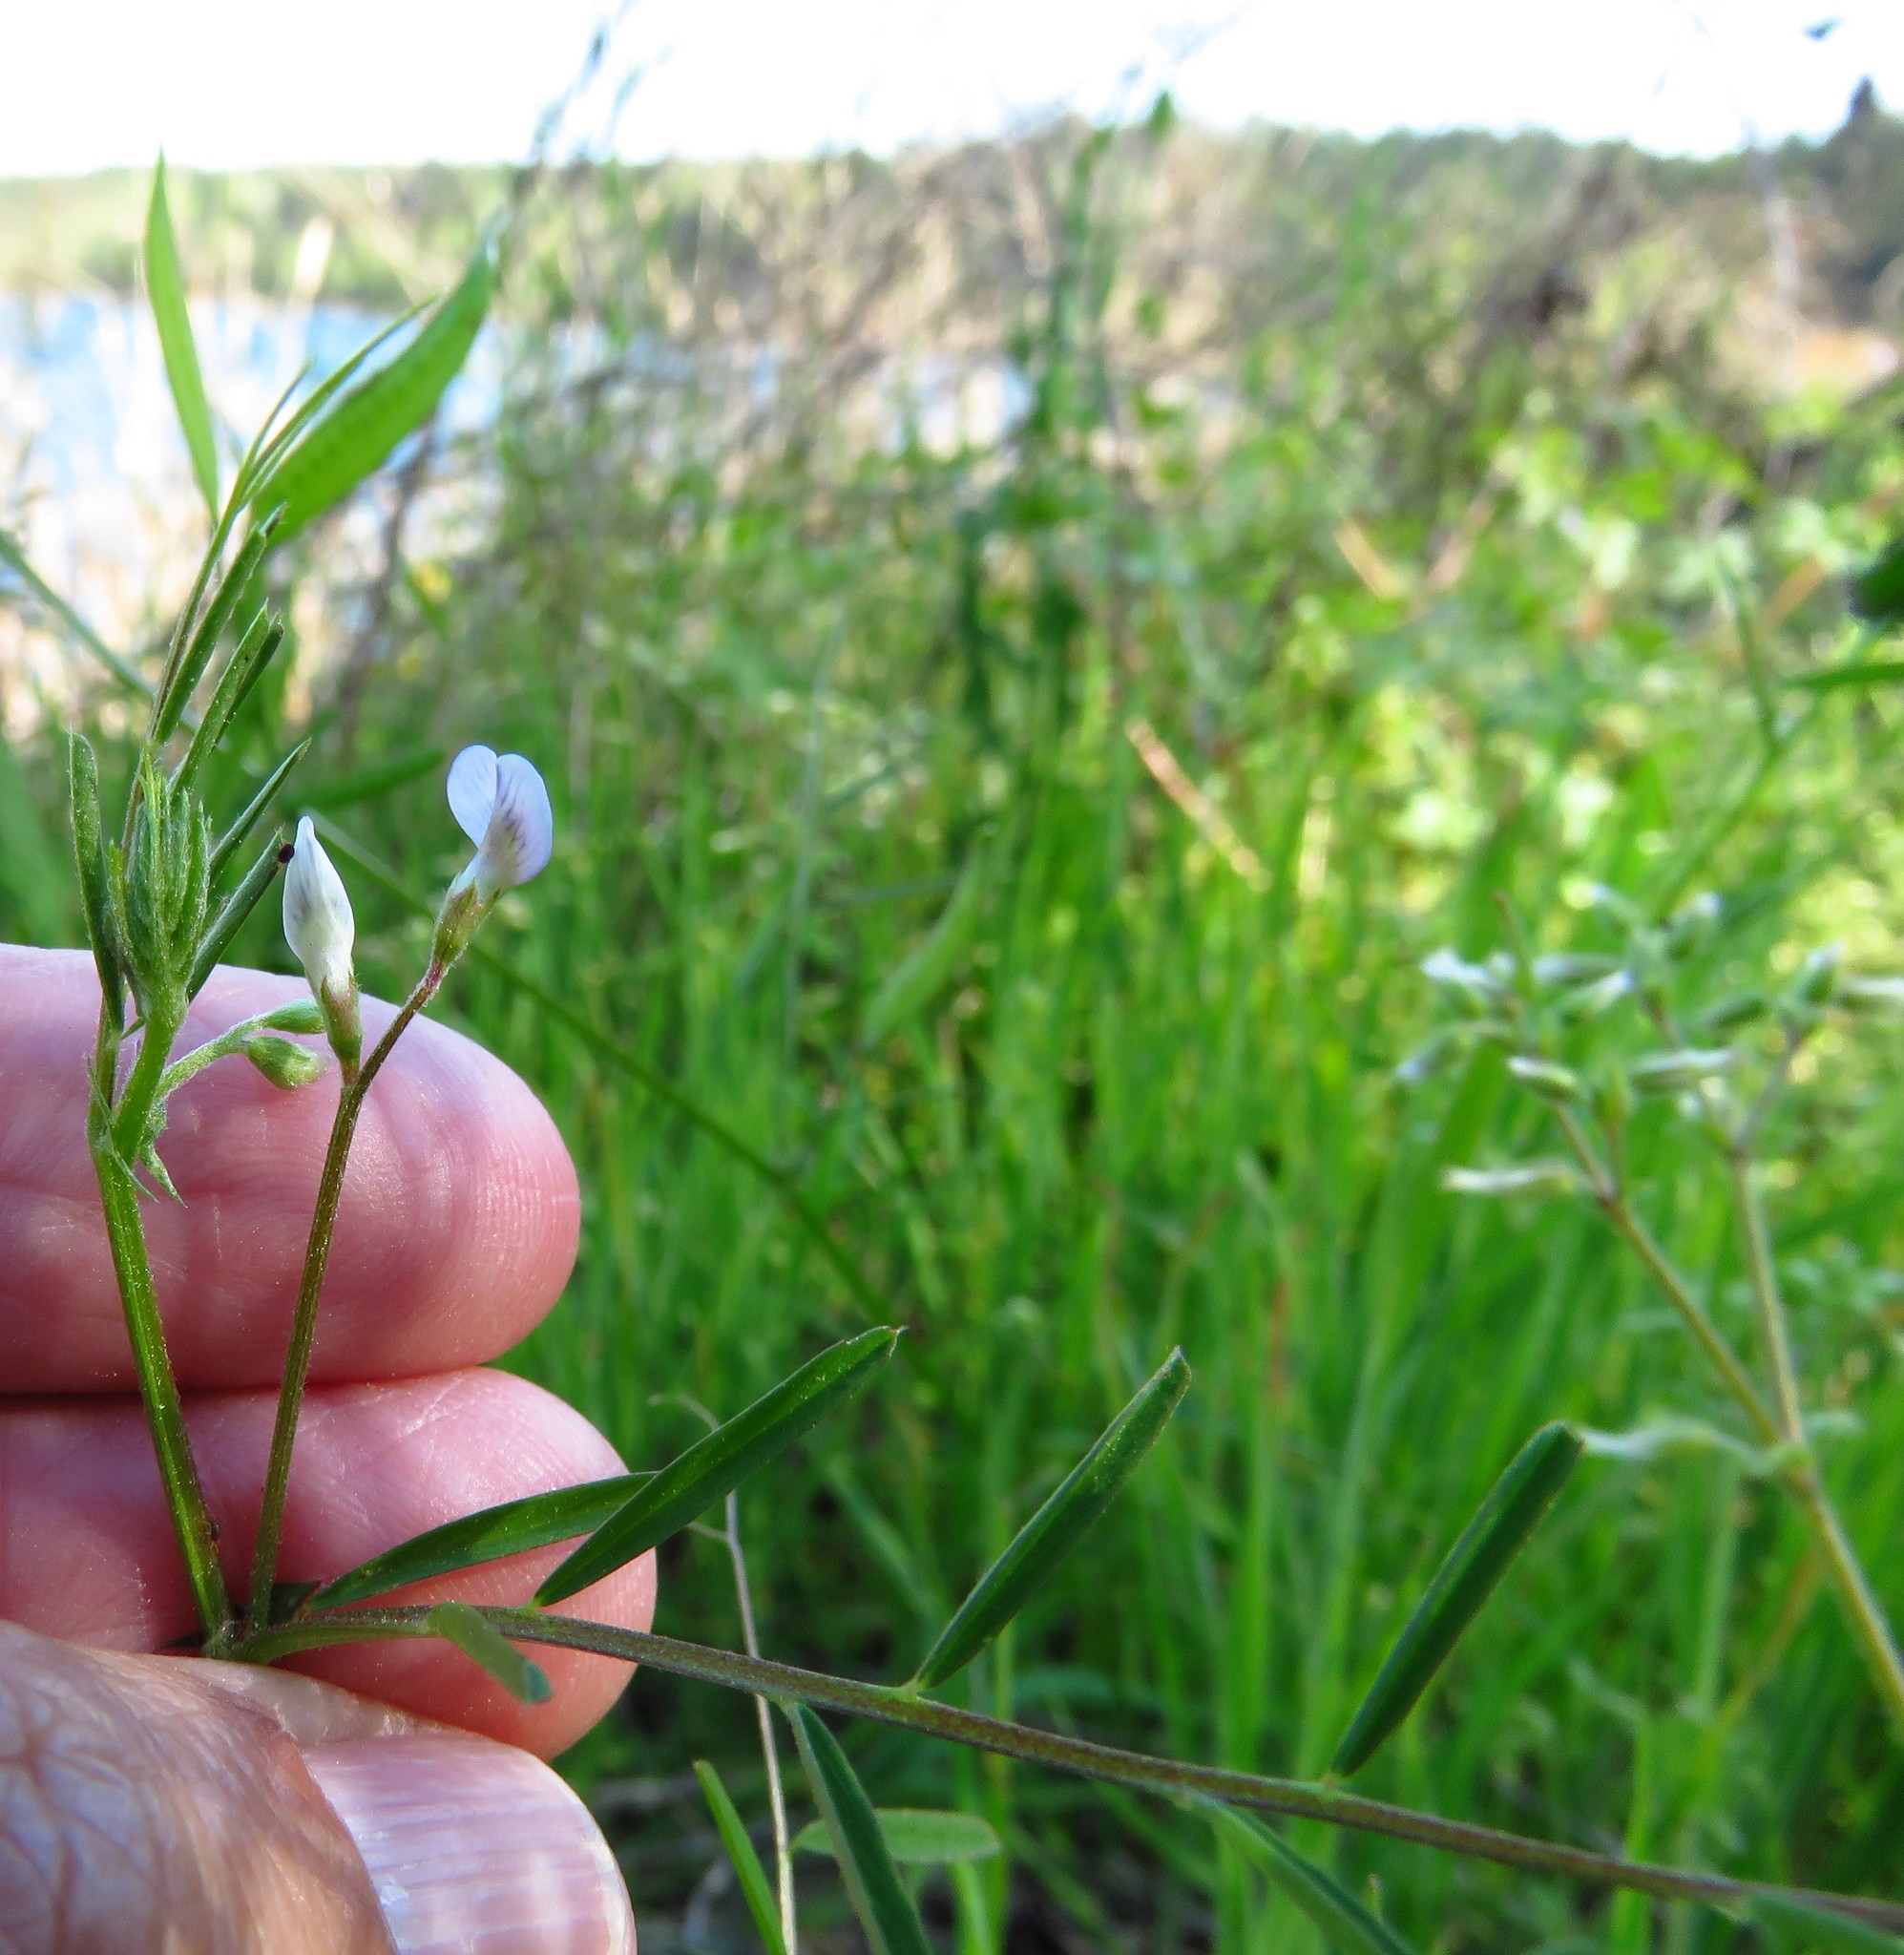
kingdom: Plantae
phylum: Tracheophyta
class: Magnoliopsida
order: Fabales
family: Fabaceae
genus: Vicia
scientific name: Vicia minutiflora
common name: Pygmy-flower vetch
